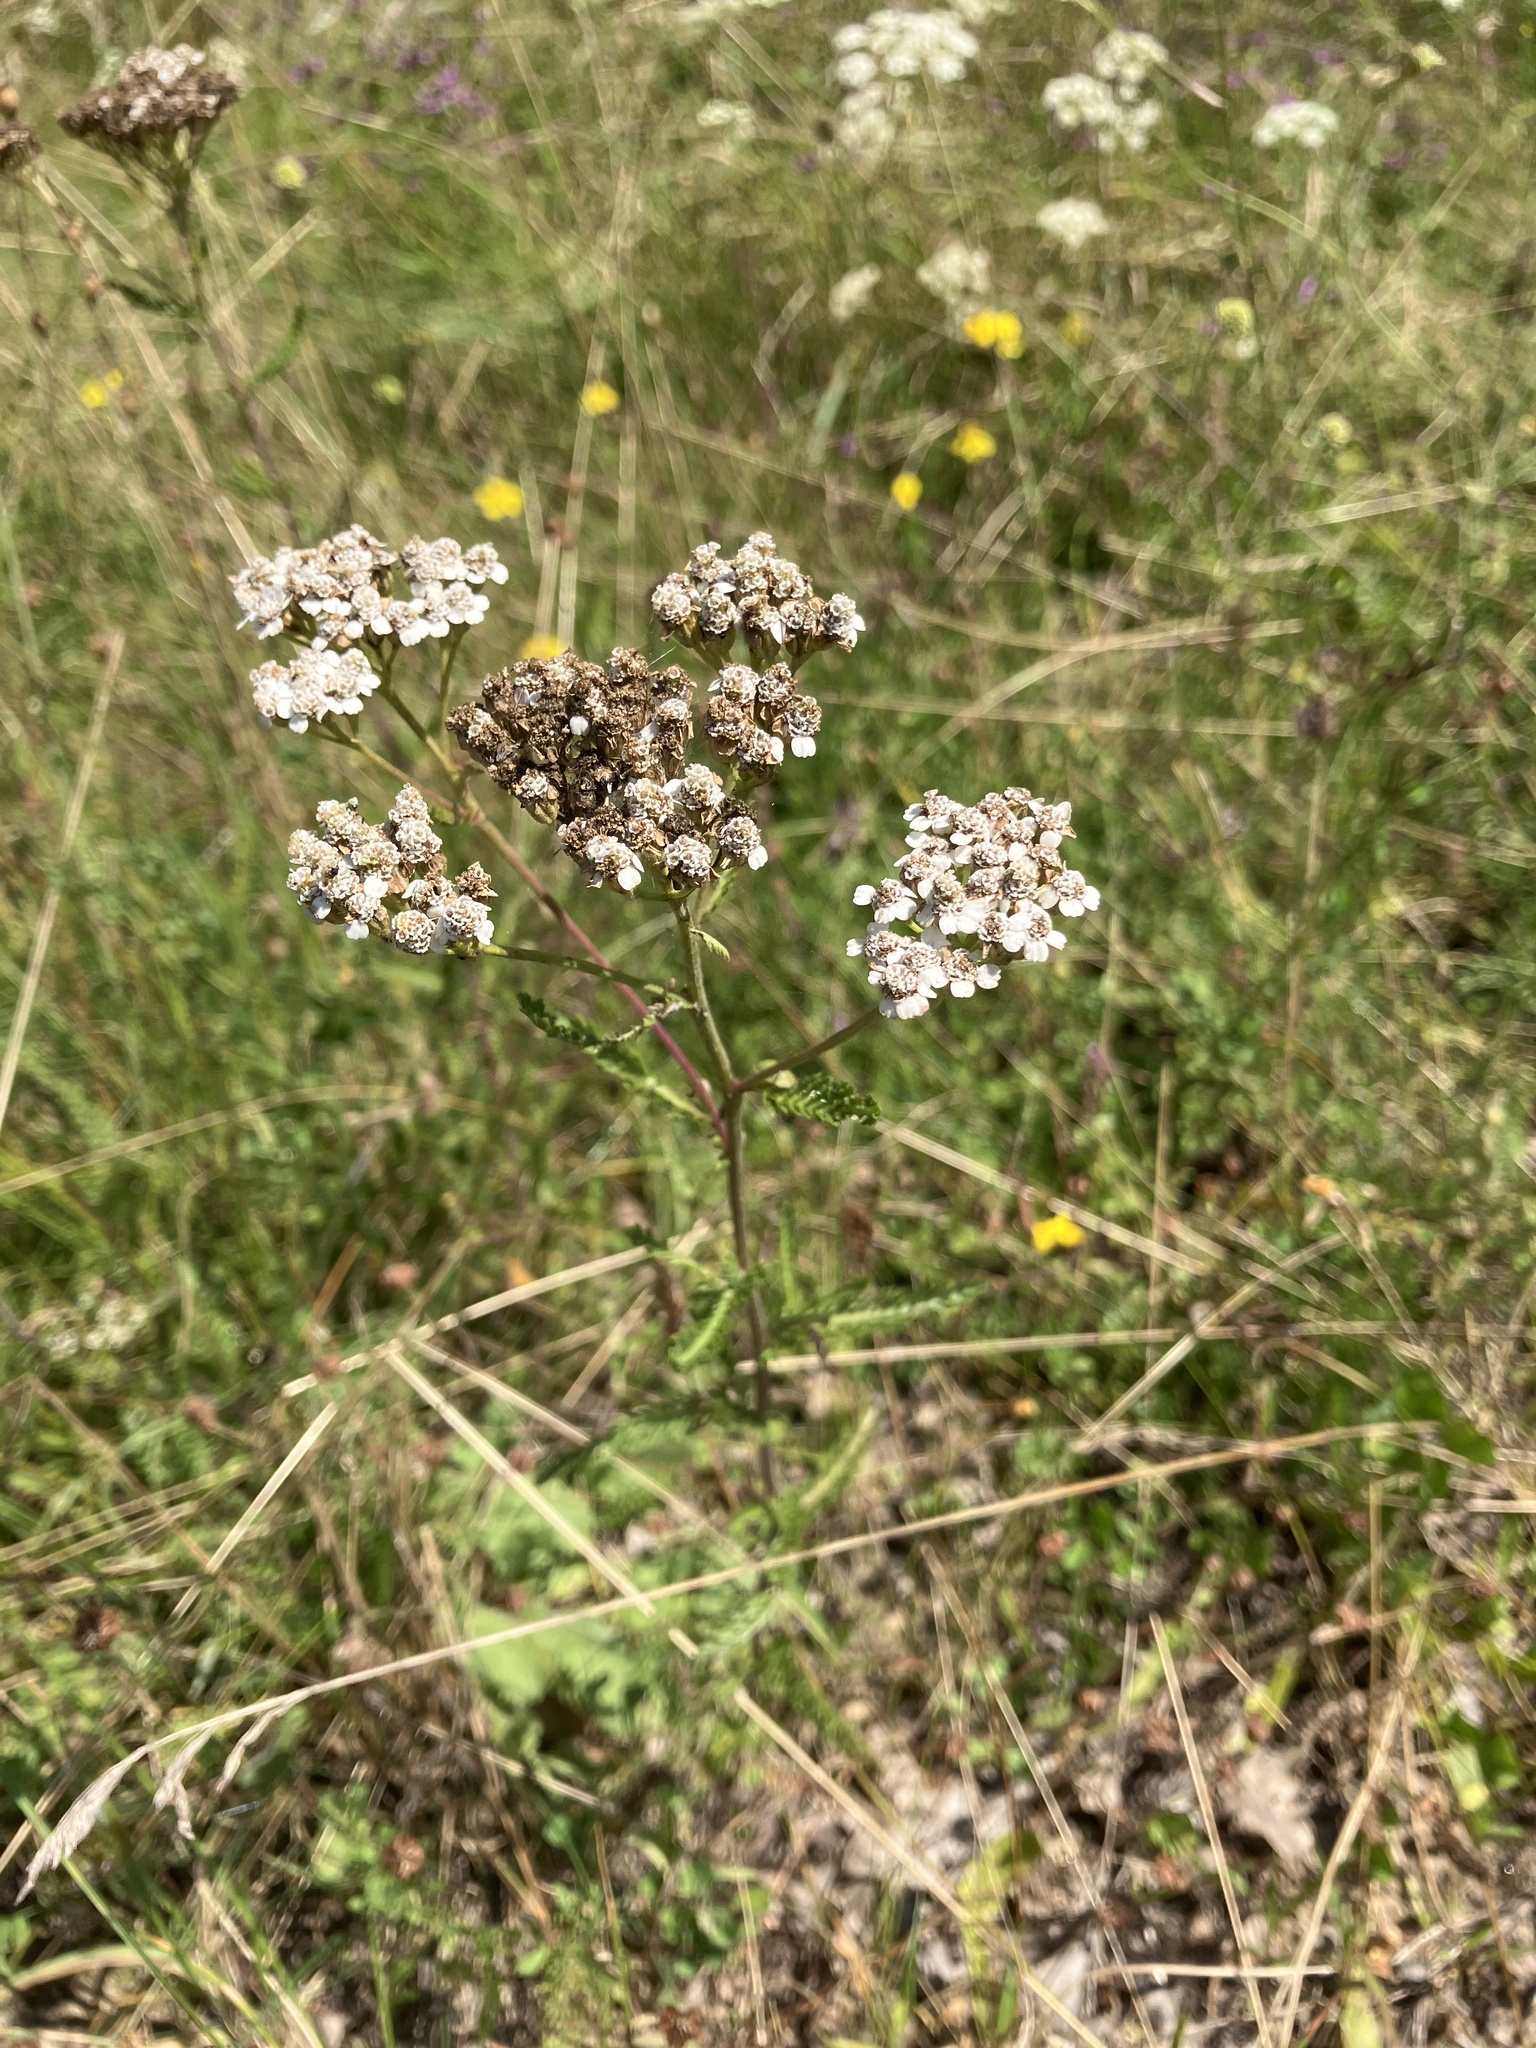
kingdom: Plantae
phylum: Tracheophyta
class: Magnoliopsida
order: Asterales
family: Asteraceae
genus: Achillea
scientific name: Achillea millefolium
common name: Yarrow
